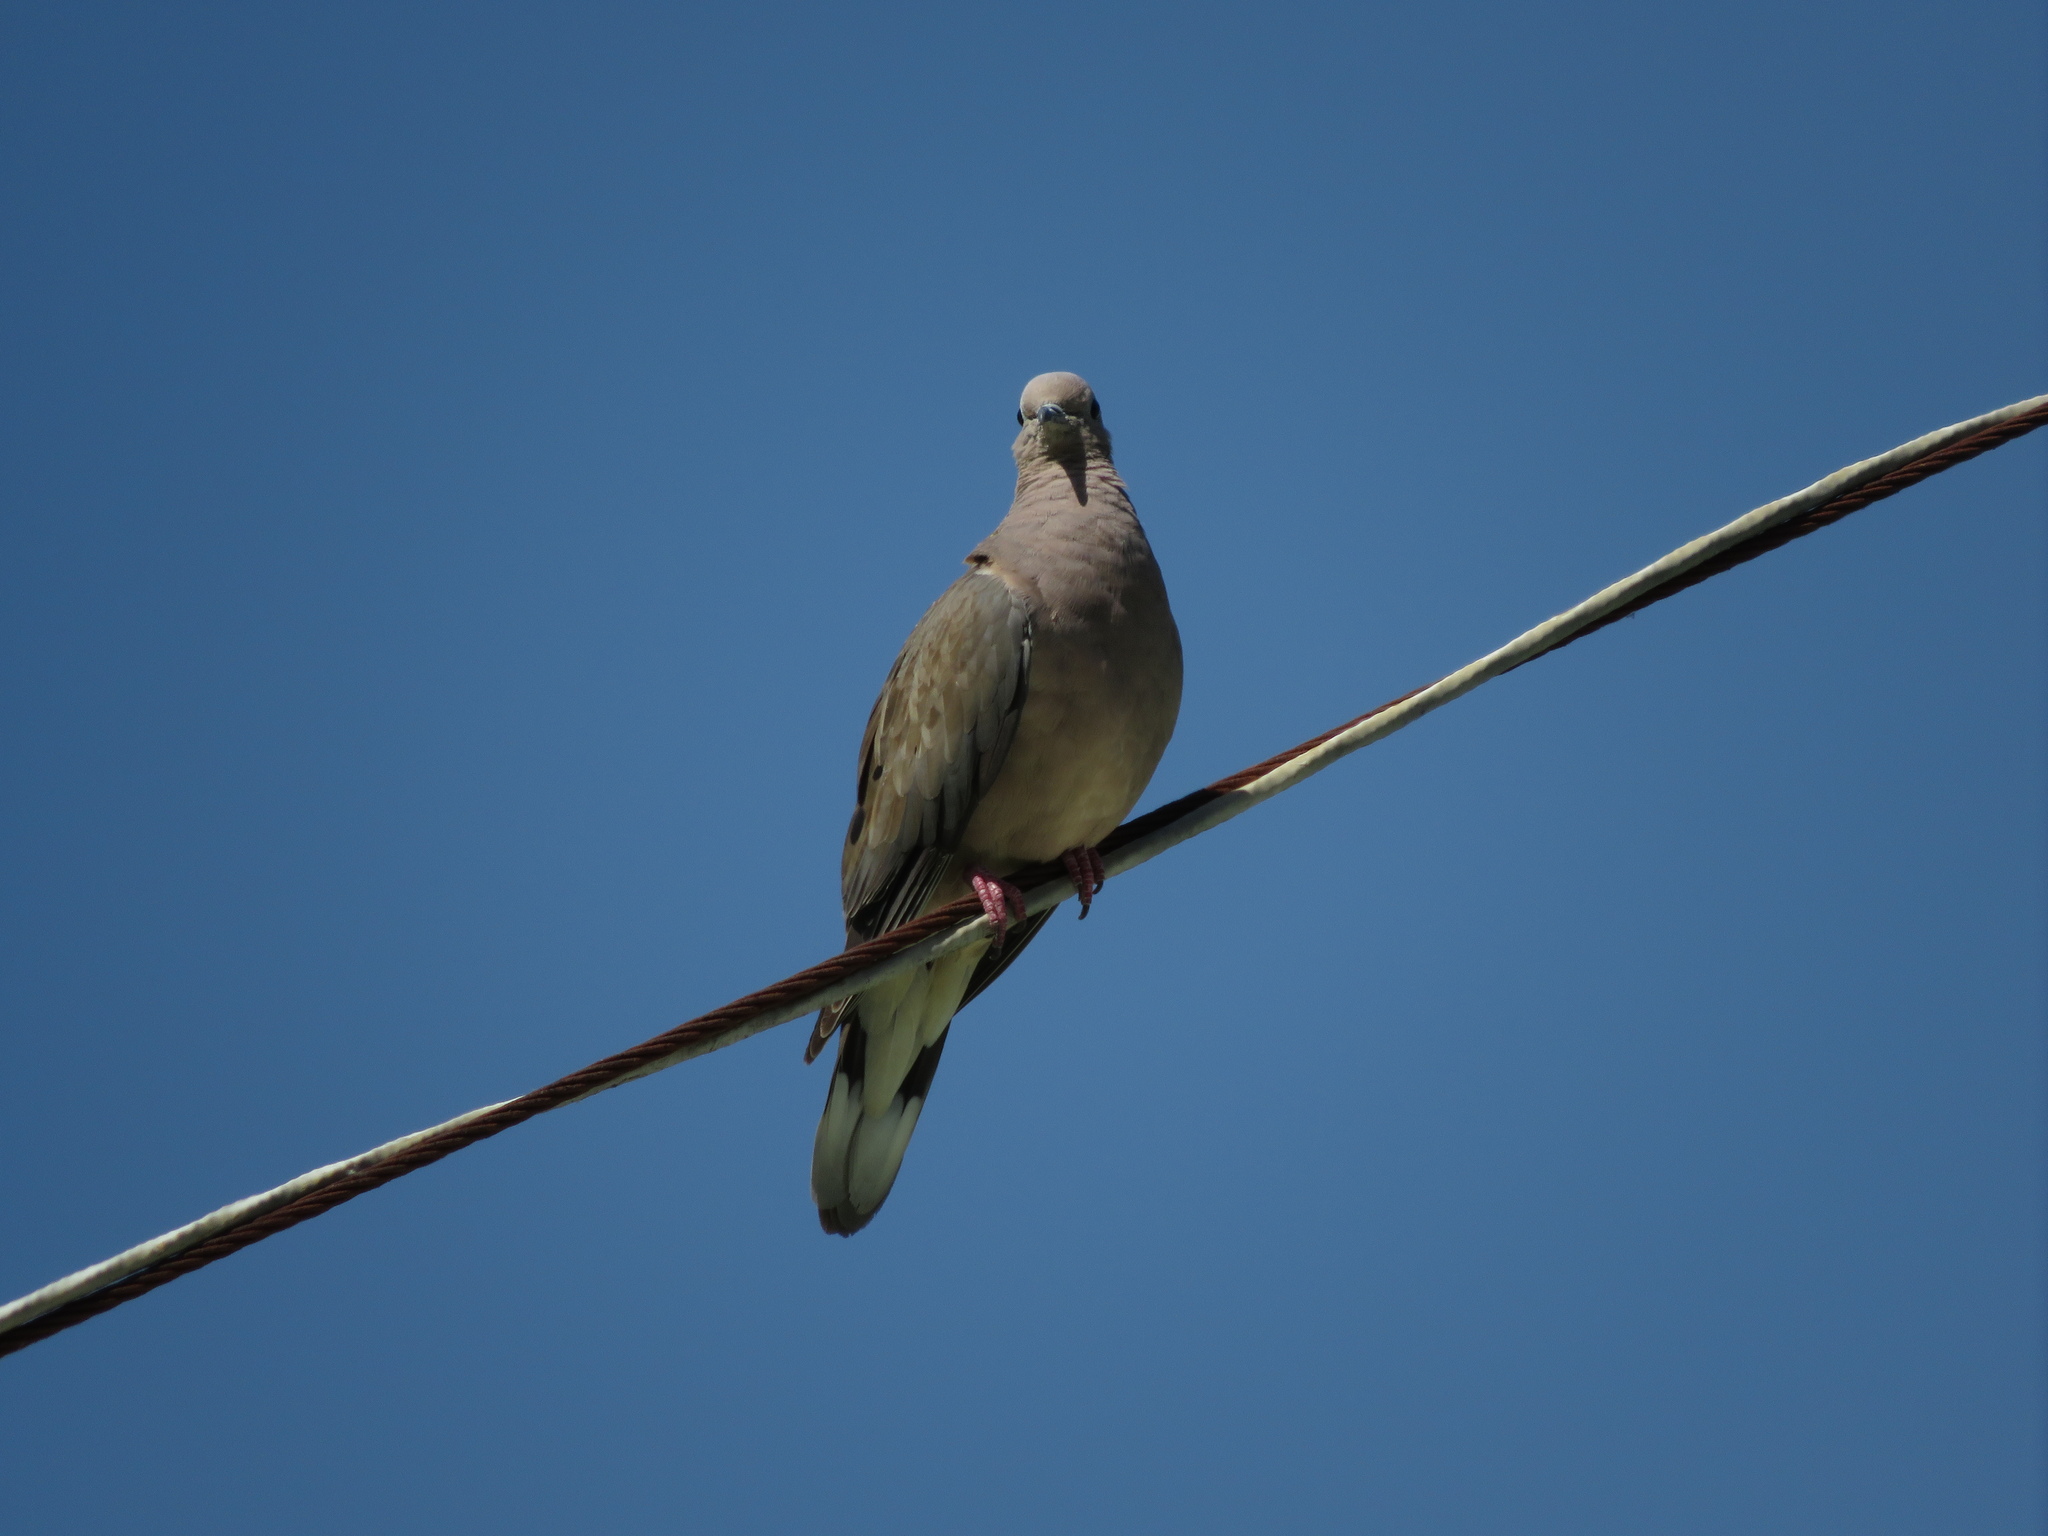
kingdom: Animalia
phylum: Chordata
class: Aves
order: Columbiformes
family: Columbidae
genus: Zenaida
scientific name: Zenaida auriculata
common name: Eared dove
